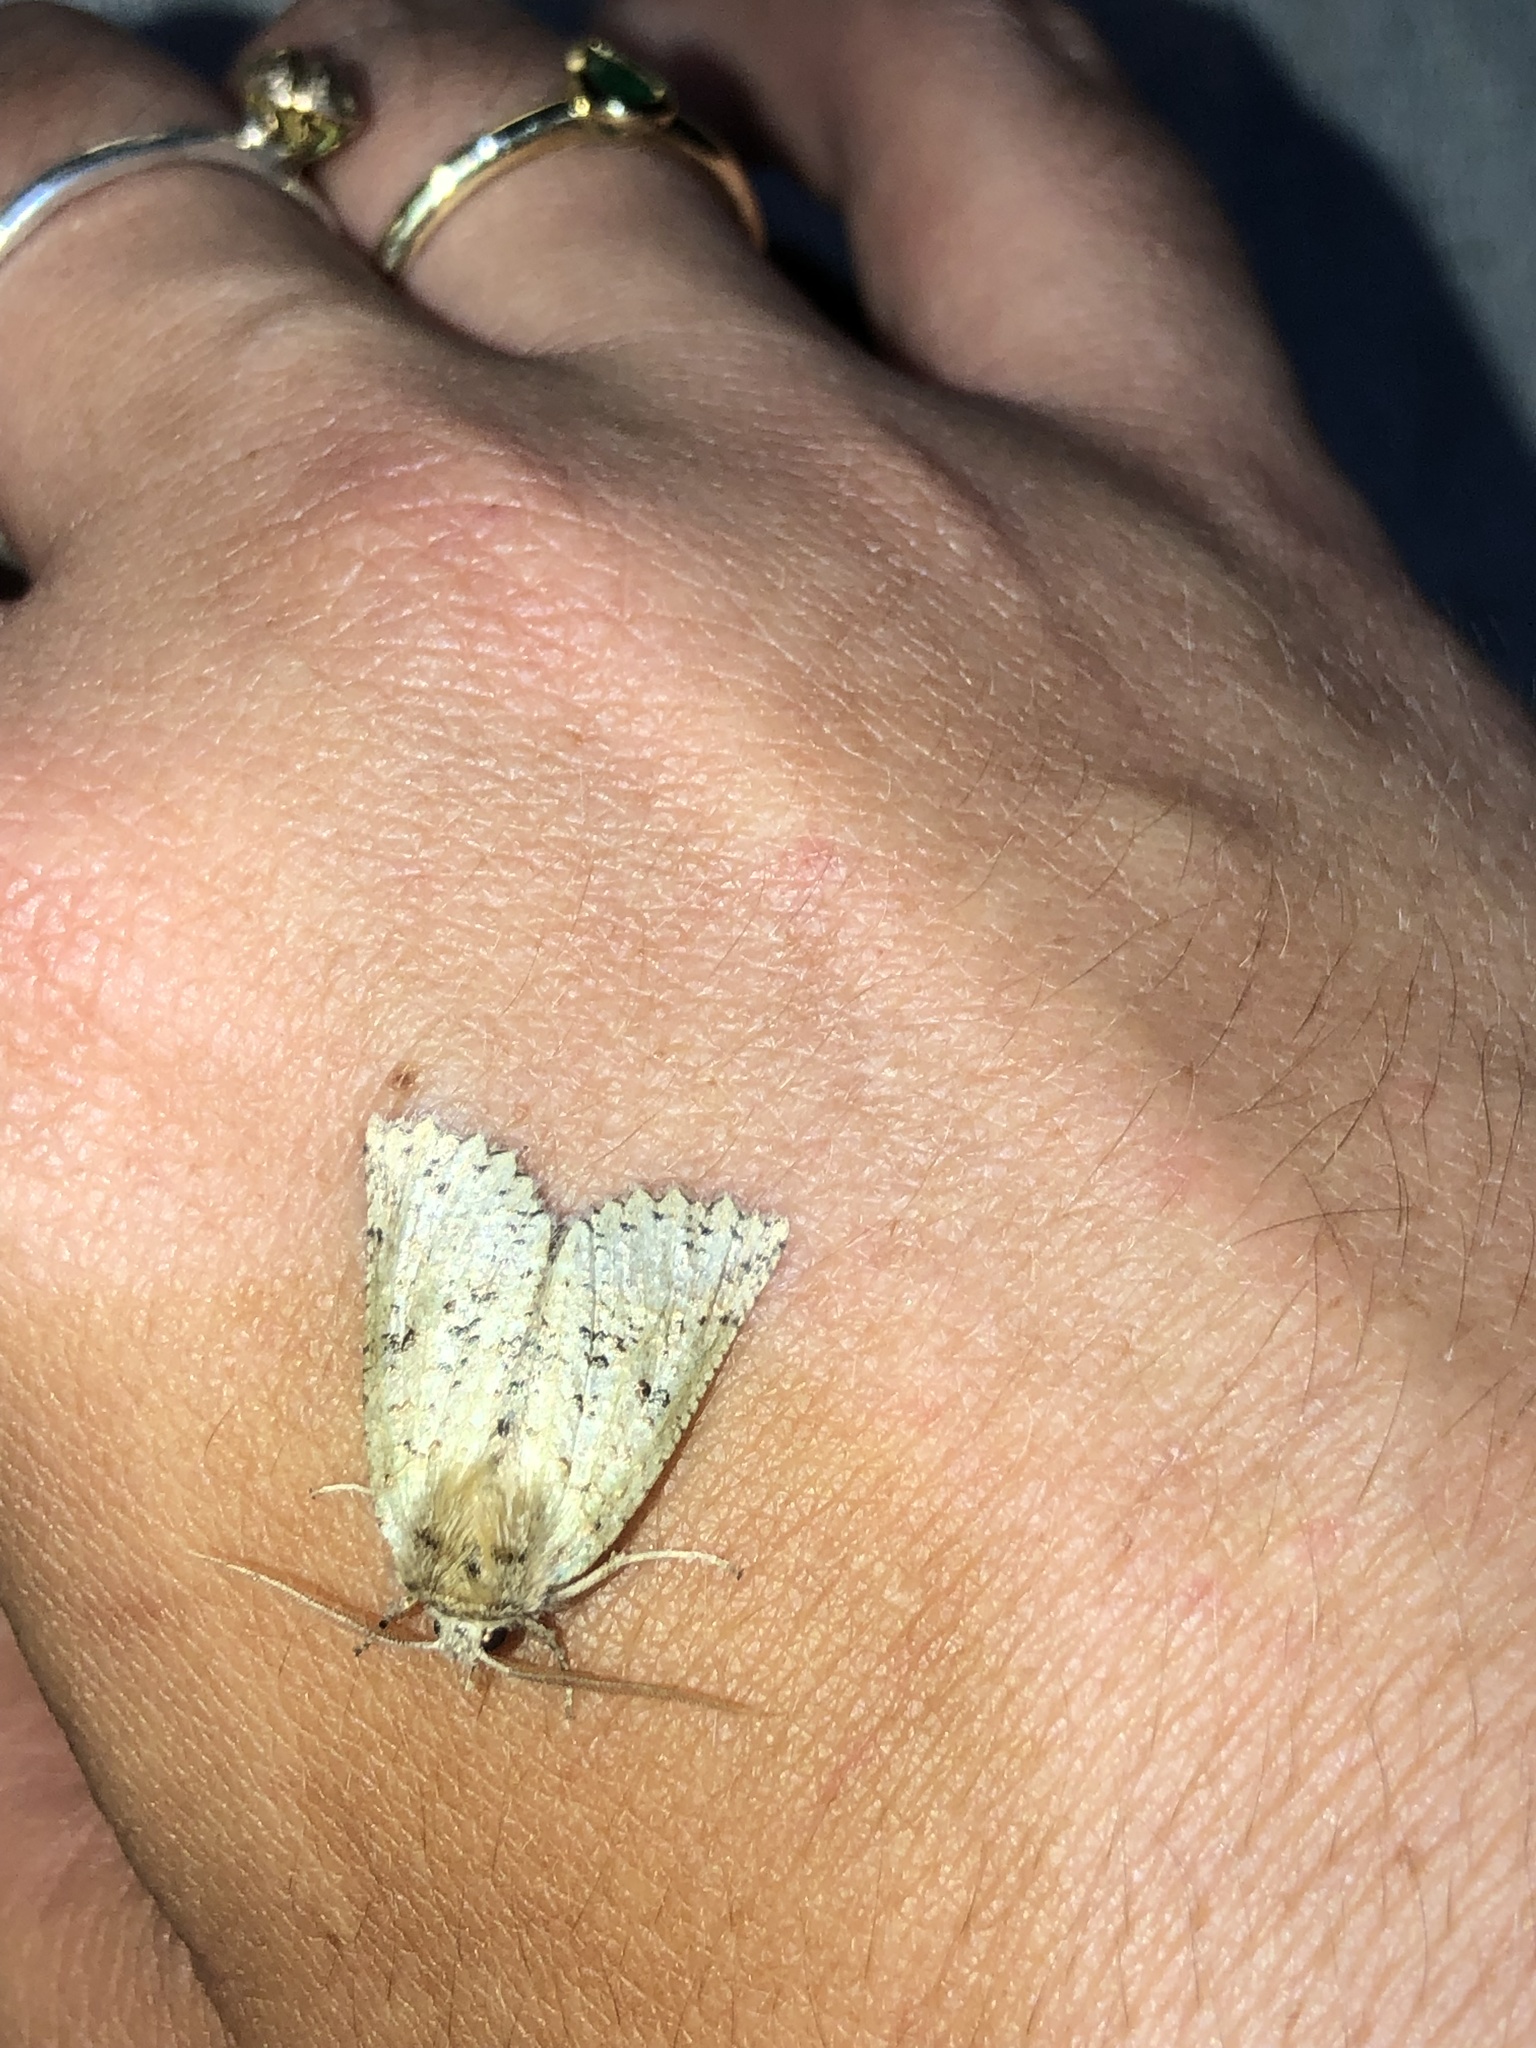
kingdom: Animalia
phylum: Arthropoda
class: Insecta
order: Lepidoptera
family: Geometridae
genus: Declana
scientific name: Declana floccosa
